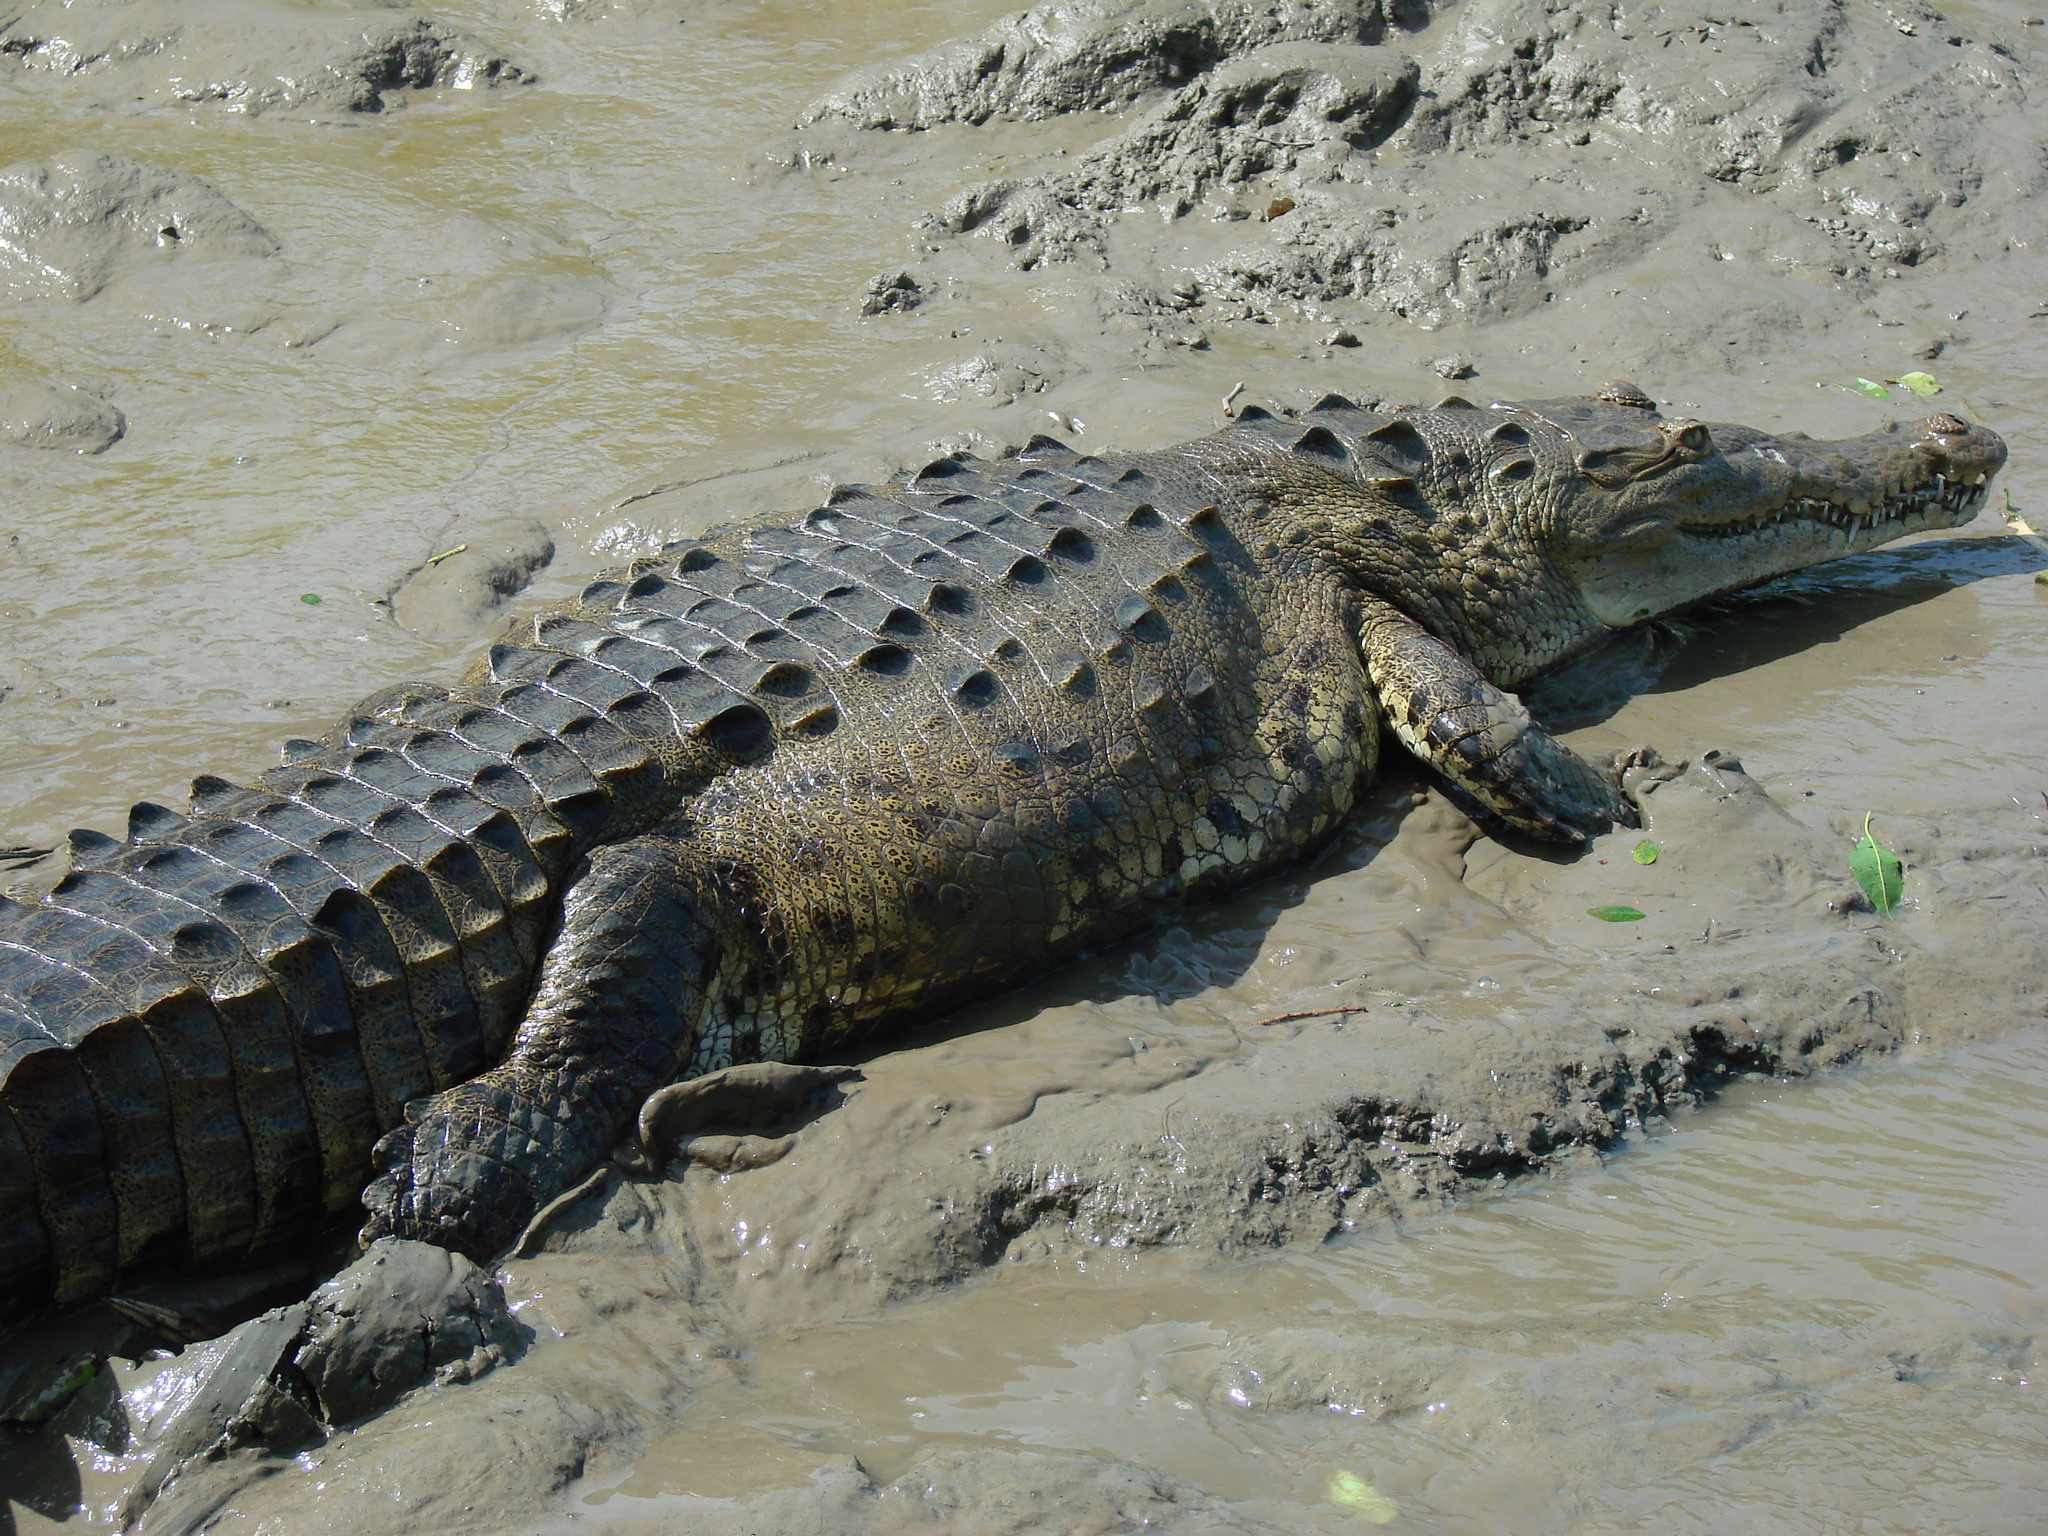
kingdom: Animalia
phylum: Chordata
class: Crocodylia
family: Crocodylidae
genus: Crocodylus
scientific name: Crocodylus acutus
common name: American crocodile
